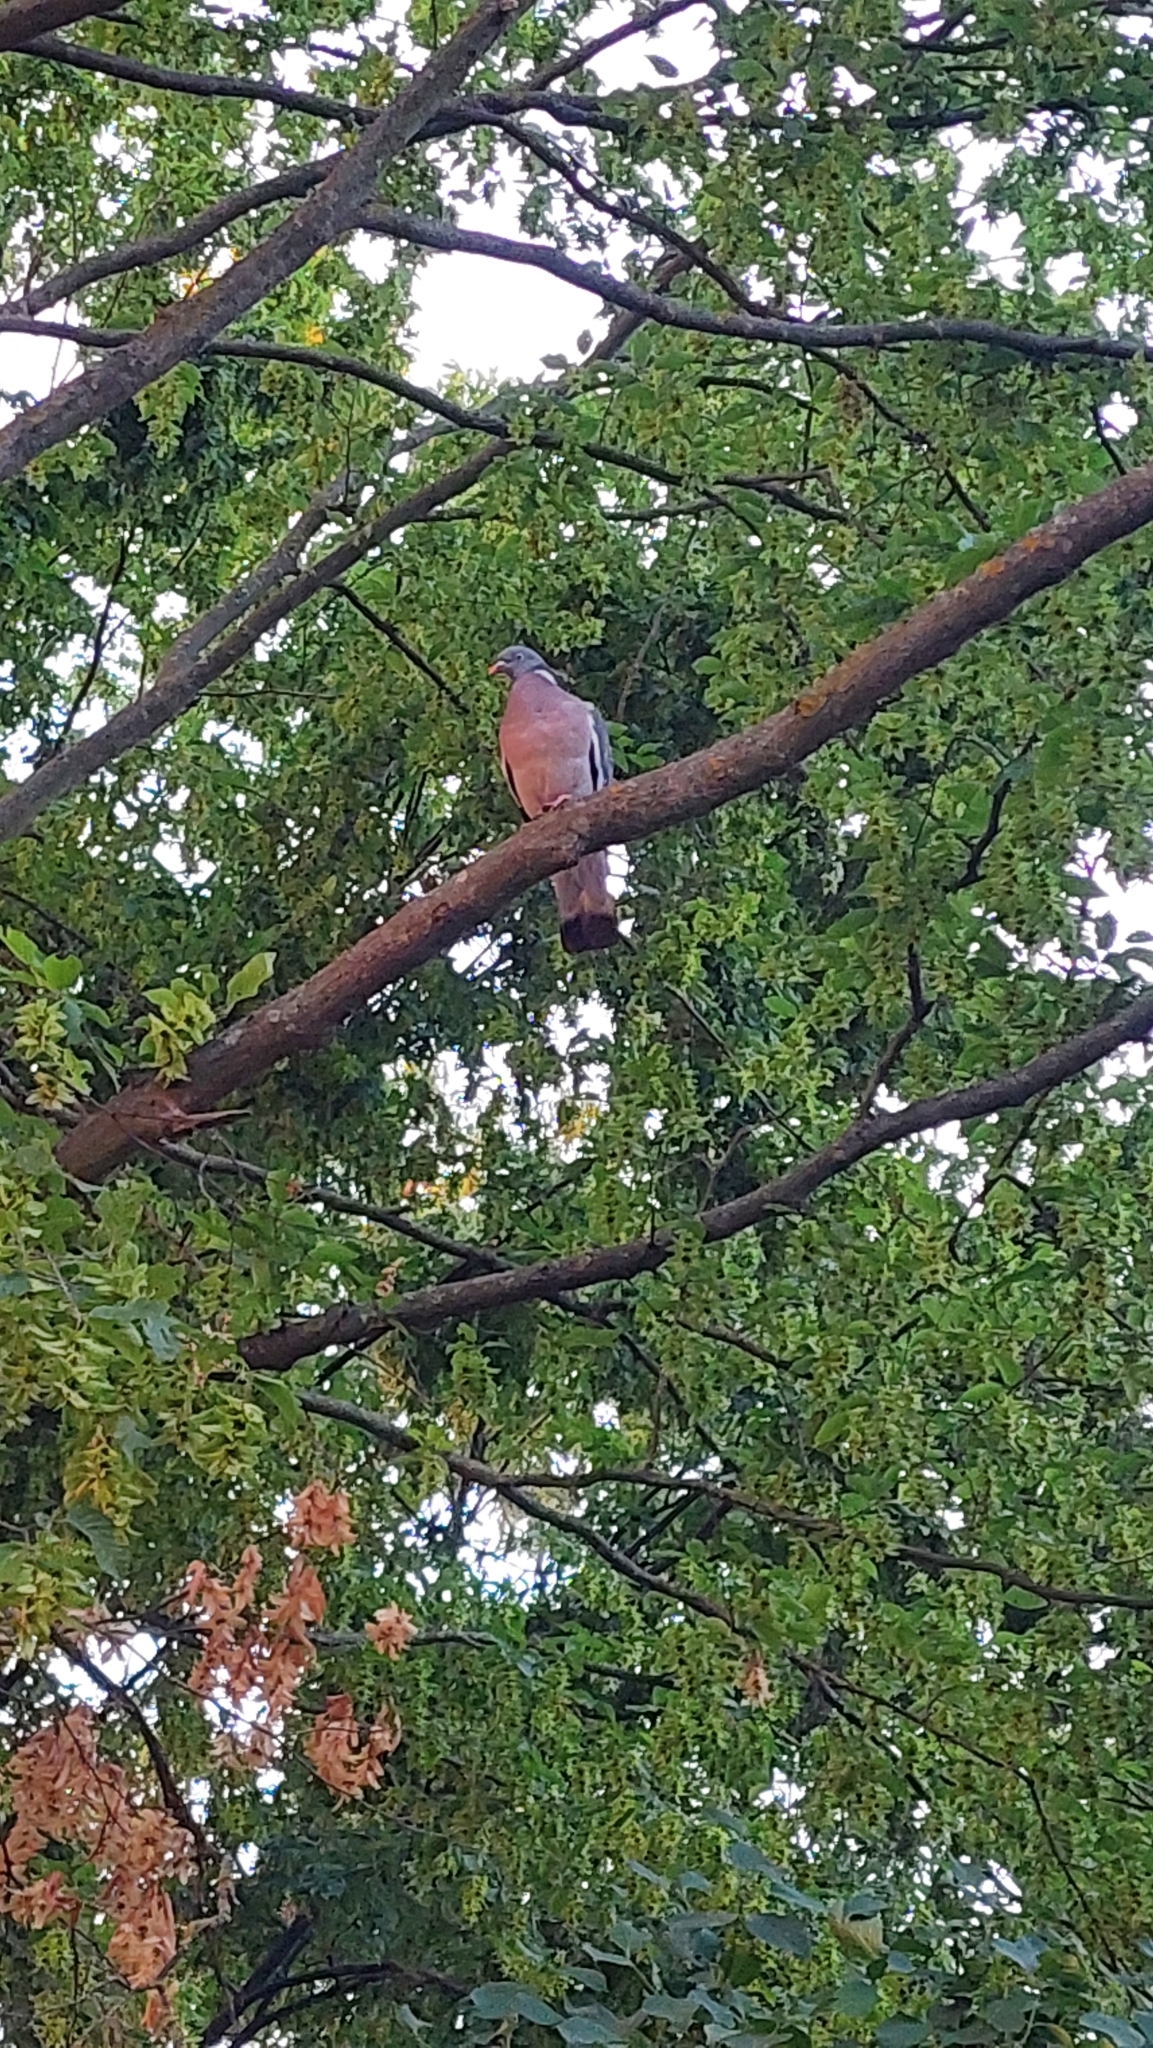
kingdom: Animalia
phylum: Chordata
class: Aves
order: Columbiformes
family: Columbidae
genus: Columba
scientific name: Columba palumbus
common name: Common wood pigeon
